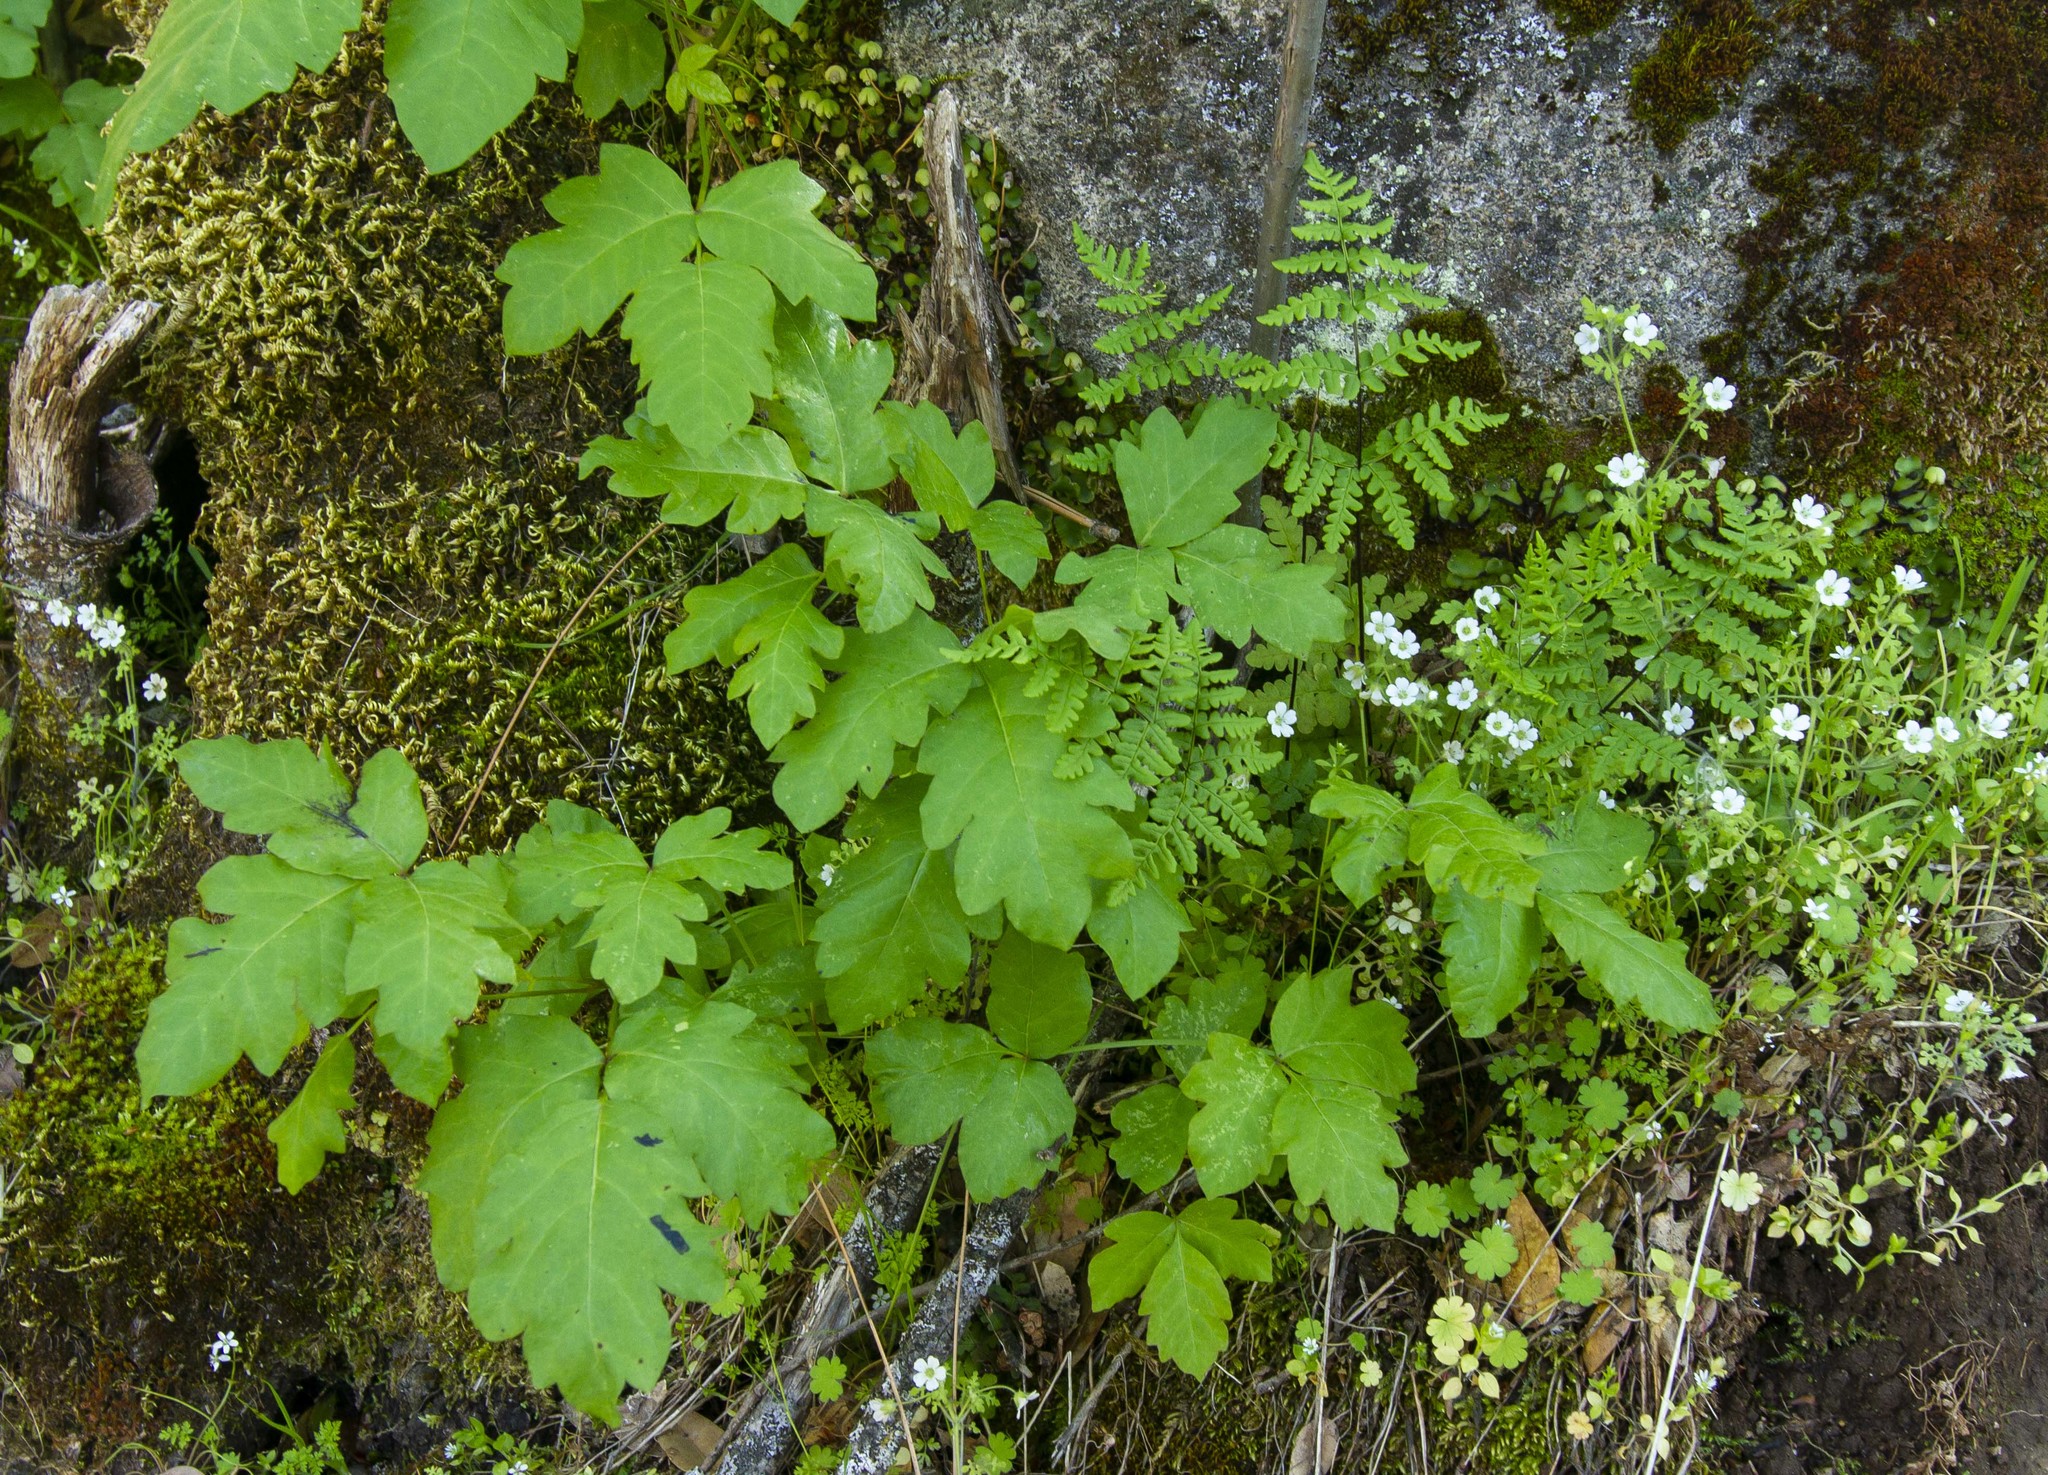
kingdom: Plantae
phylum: Tracheophyta
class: Magnoliopsida
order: Sapindales
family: Anacardiaceae
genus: Toxicodendron
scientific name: Toxicodendron diversilobum
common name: Pacific poison-oak
